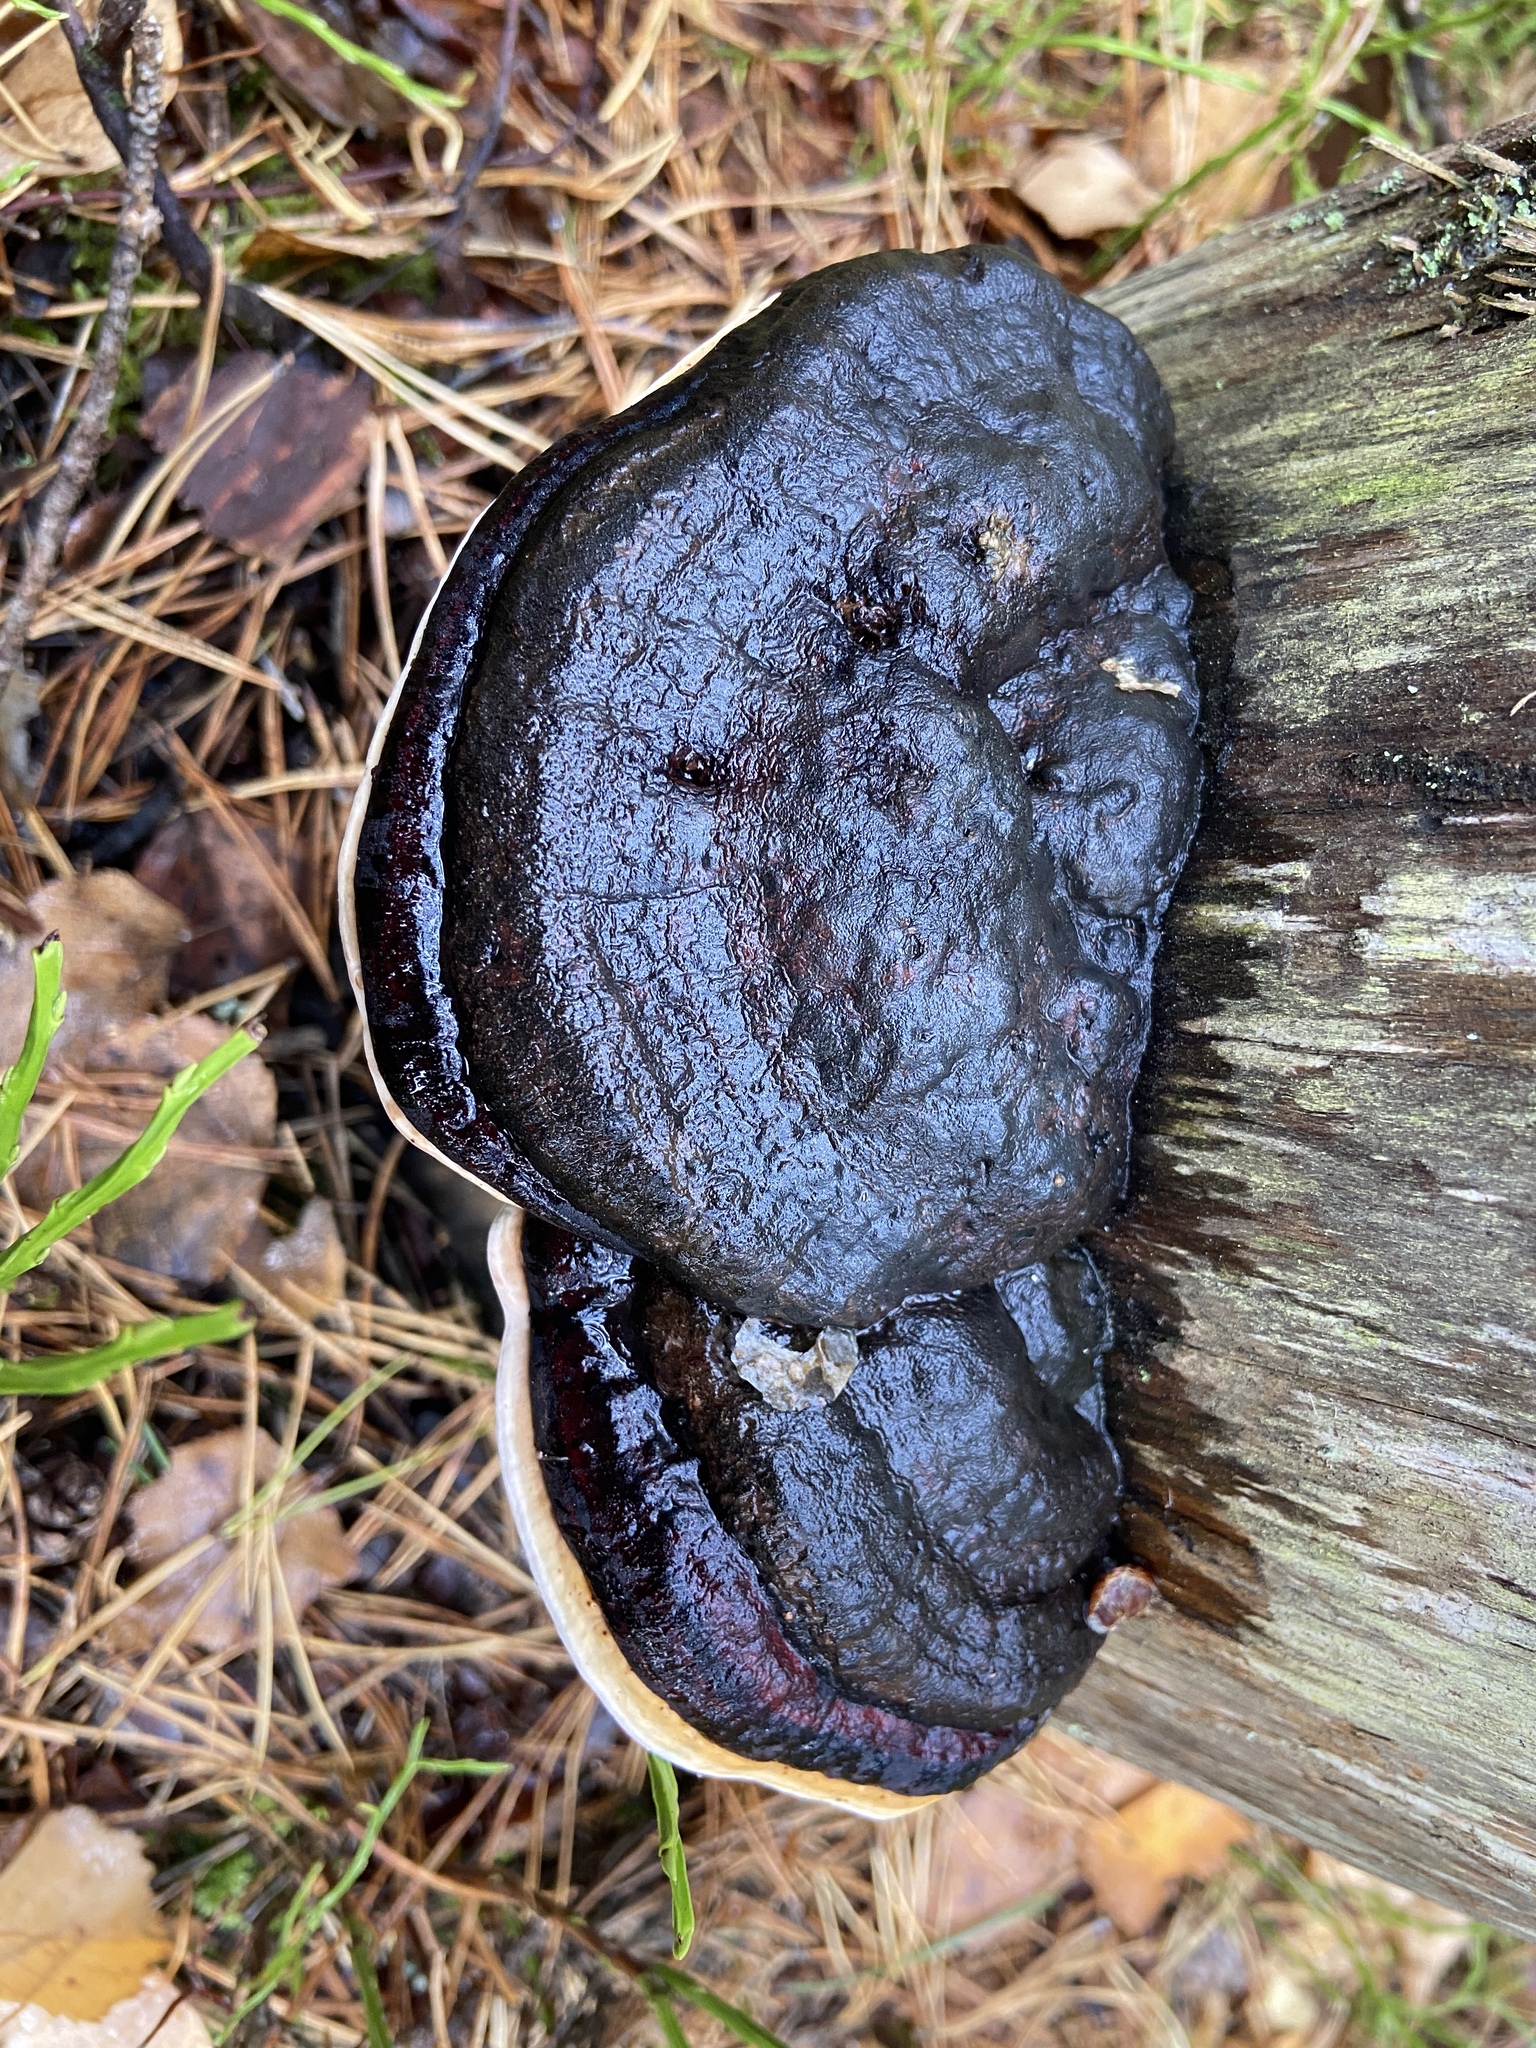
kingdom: Fungi
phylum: Basidiomycota
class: Agaricomycetes
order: Polyporales
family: Fomitopsidaceae
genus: Fomitopsis
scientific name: Fomitopsis pinicola
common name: Red-belted bracket
